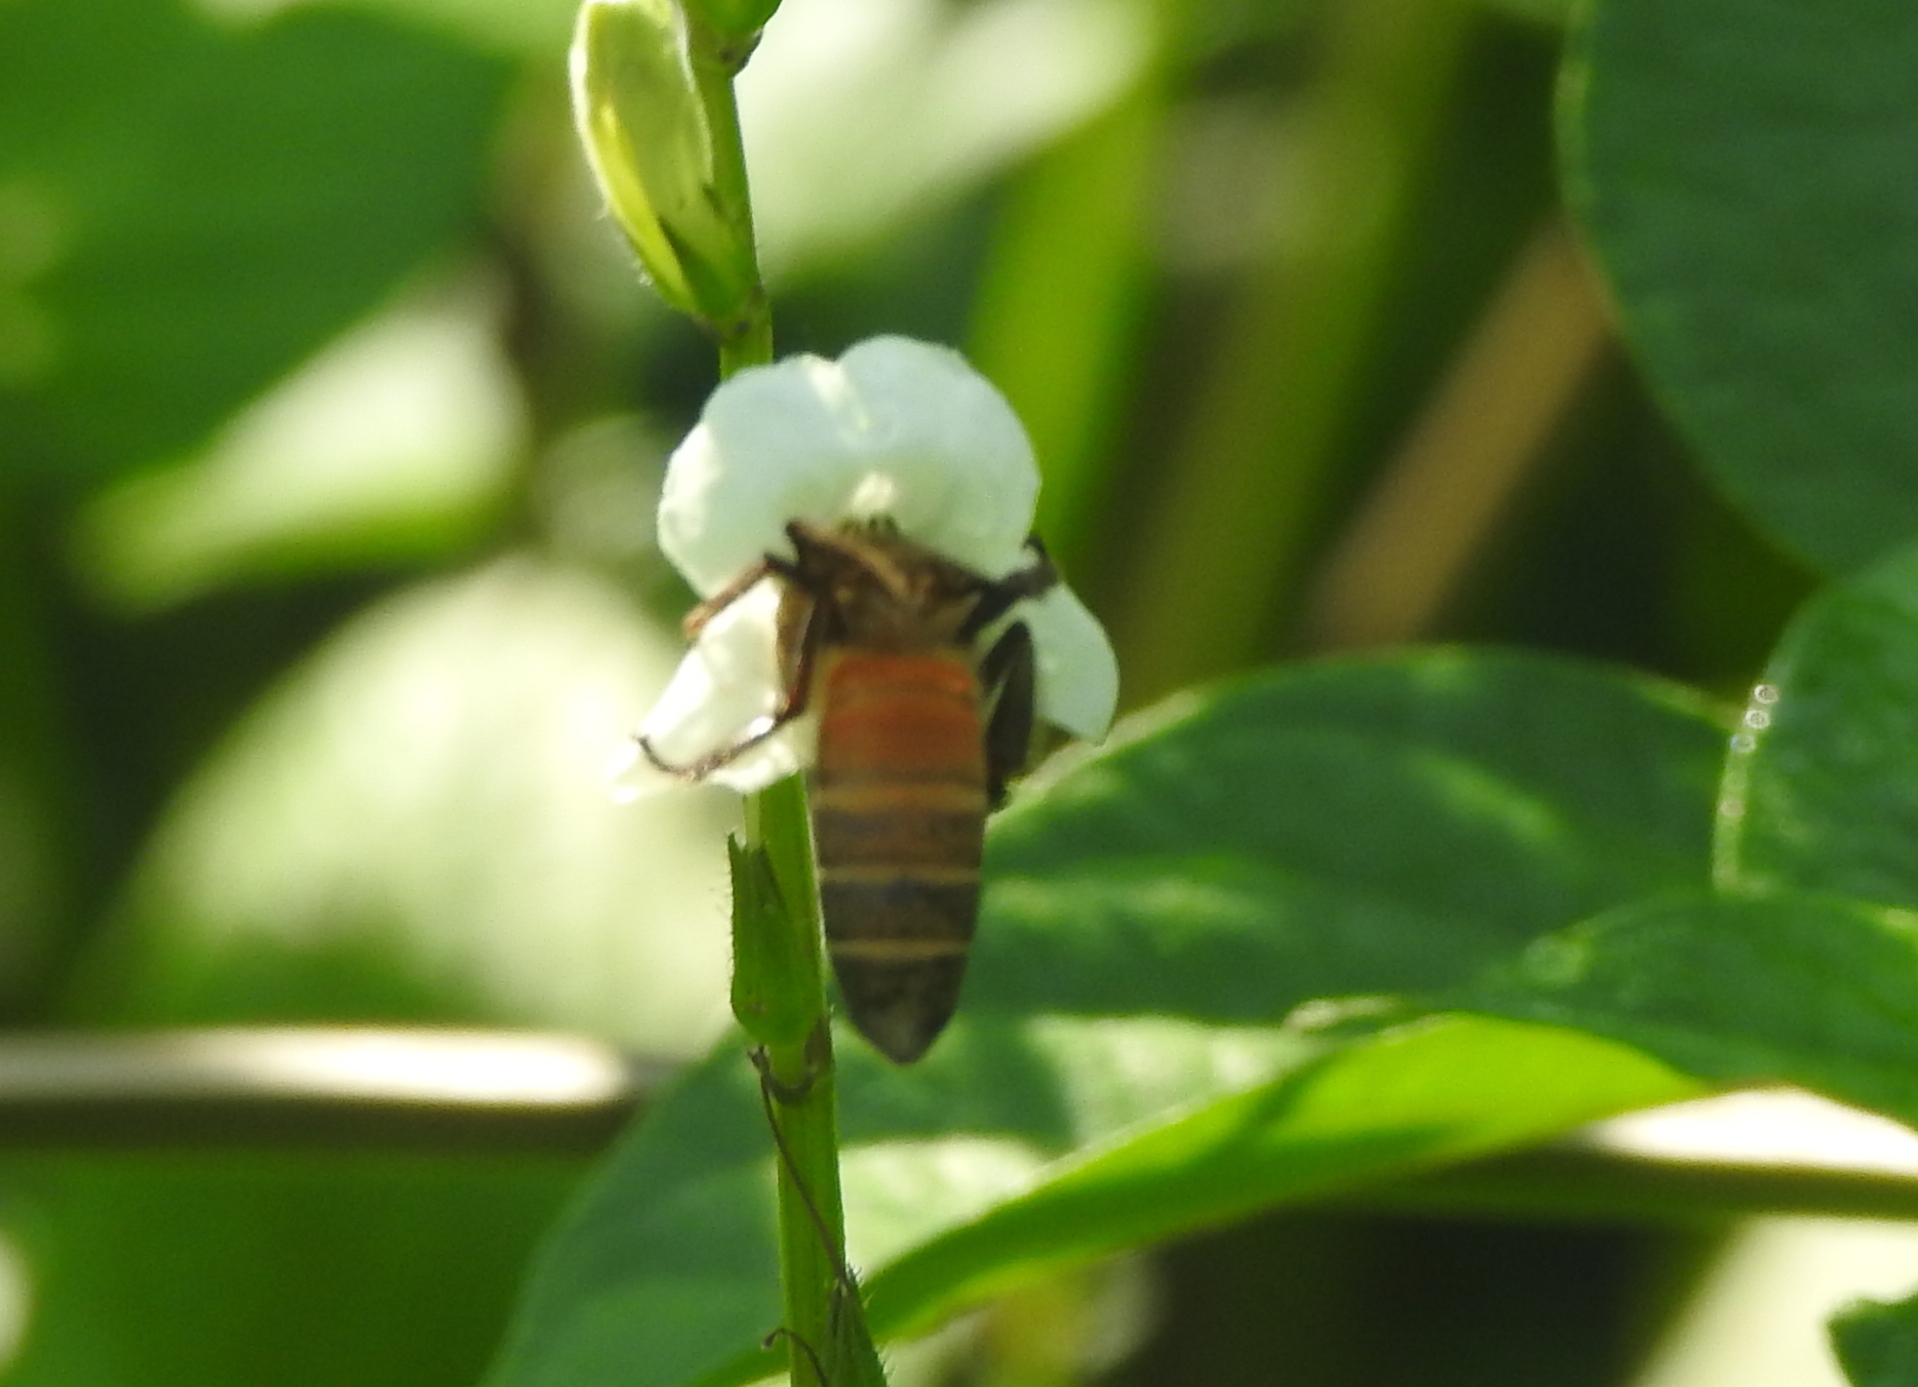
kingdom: Animalia
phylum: Arthropoda
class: Insecta
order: Hymenoptera
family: Apidae
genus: Apis
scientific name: Apis dorsata
